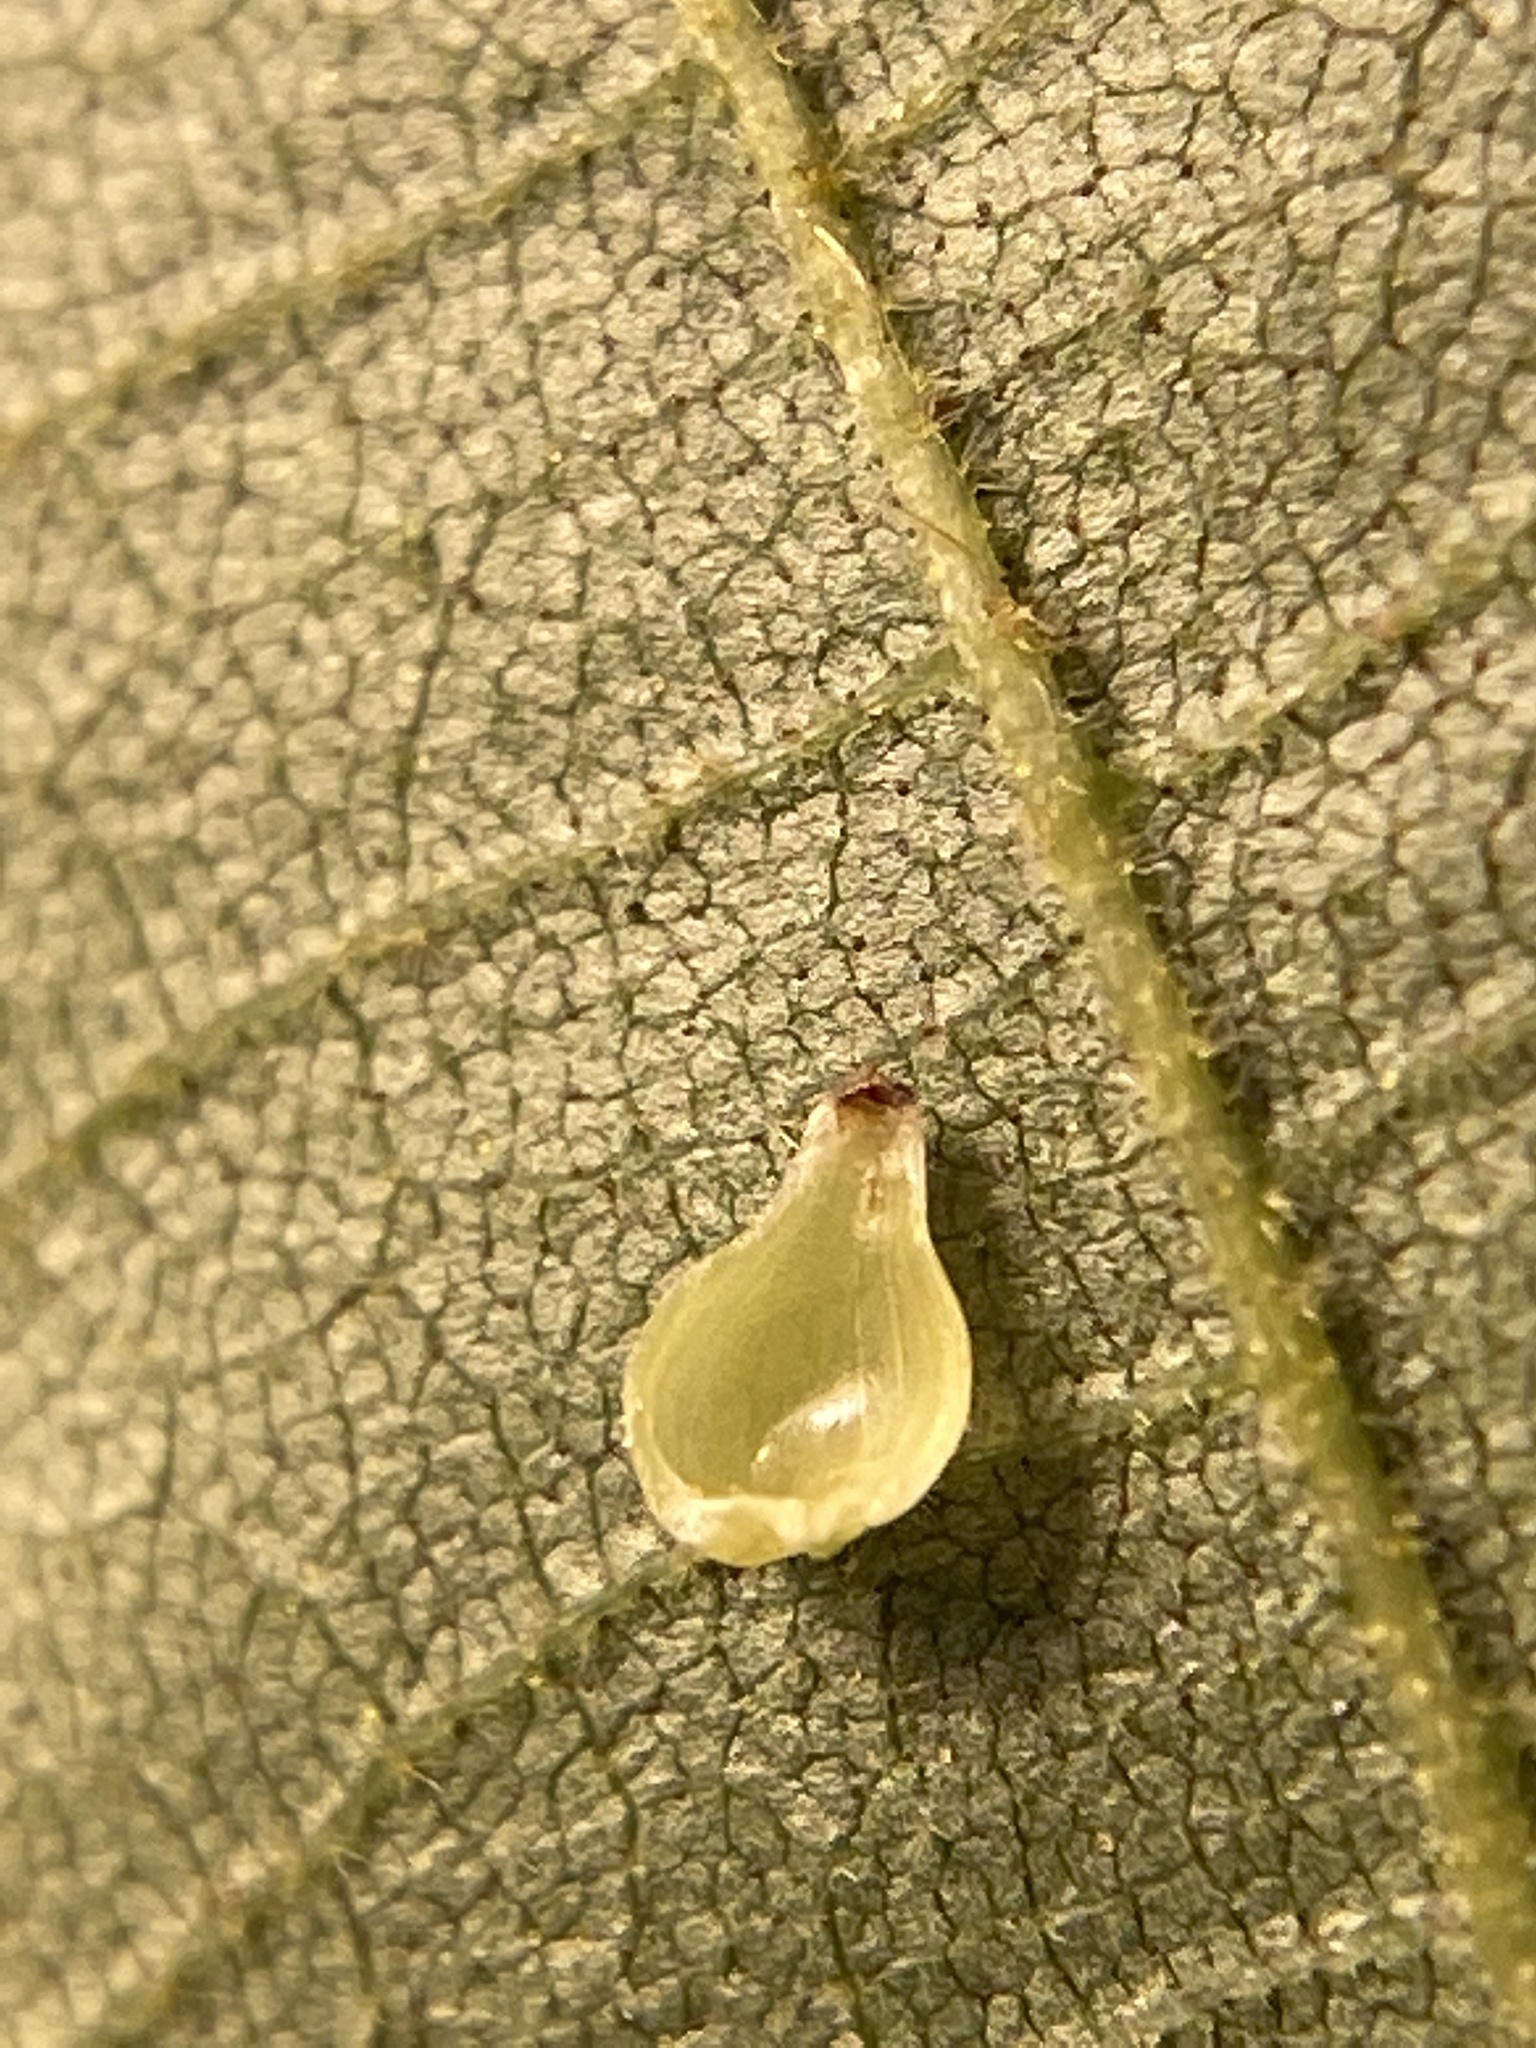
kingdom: Animalia
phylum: Arthropoda
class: Insecta
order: Diptera
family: Cecidomyiidae
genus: Caryomyia
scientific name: Caryomyia shmoo
